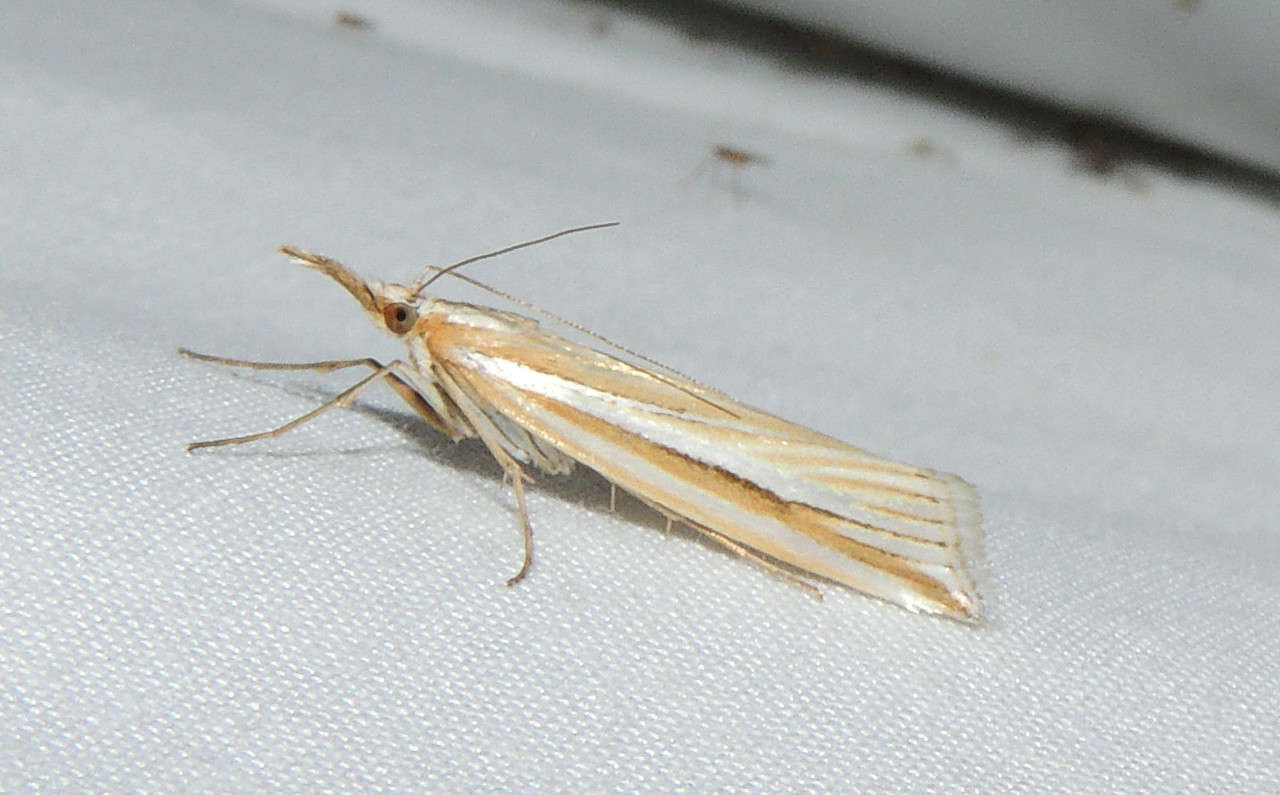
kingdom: Animalia
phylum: Arthropoda
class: Insecta
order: Lepidoptera
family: Crambidae
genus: Hednota
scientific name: Hednota grammellus
